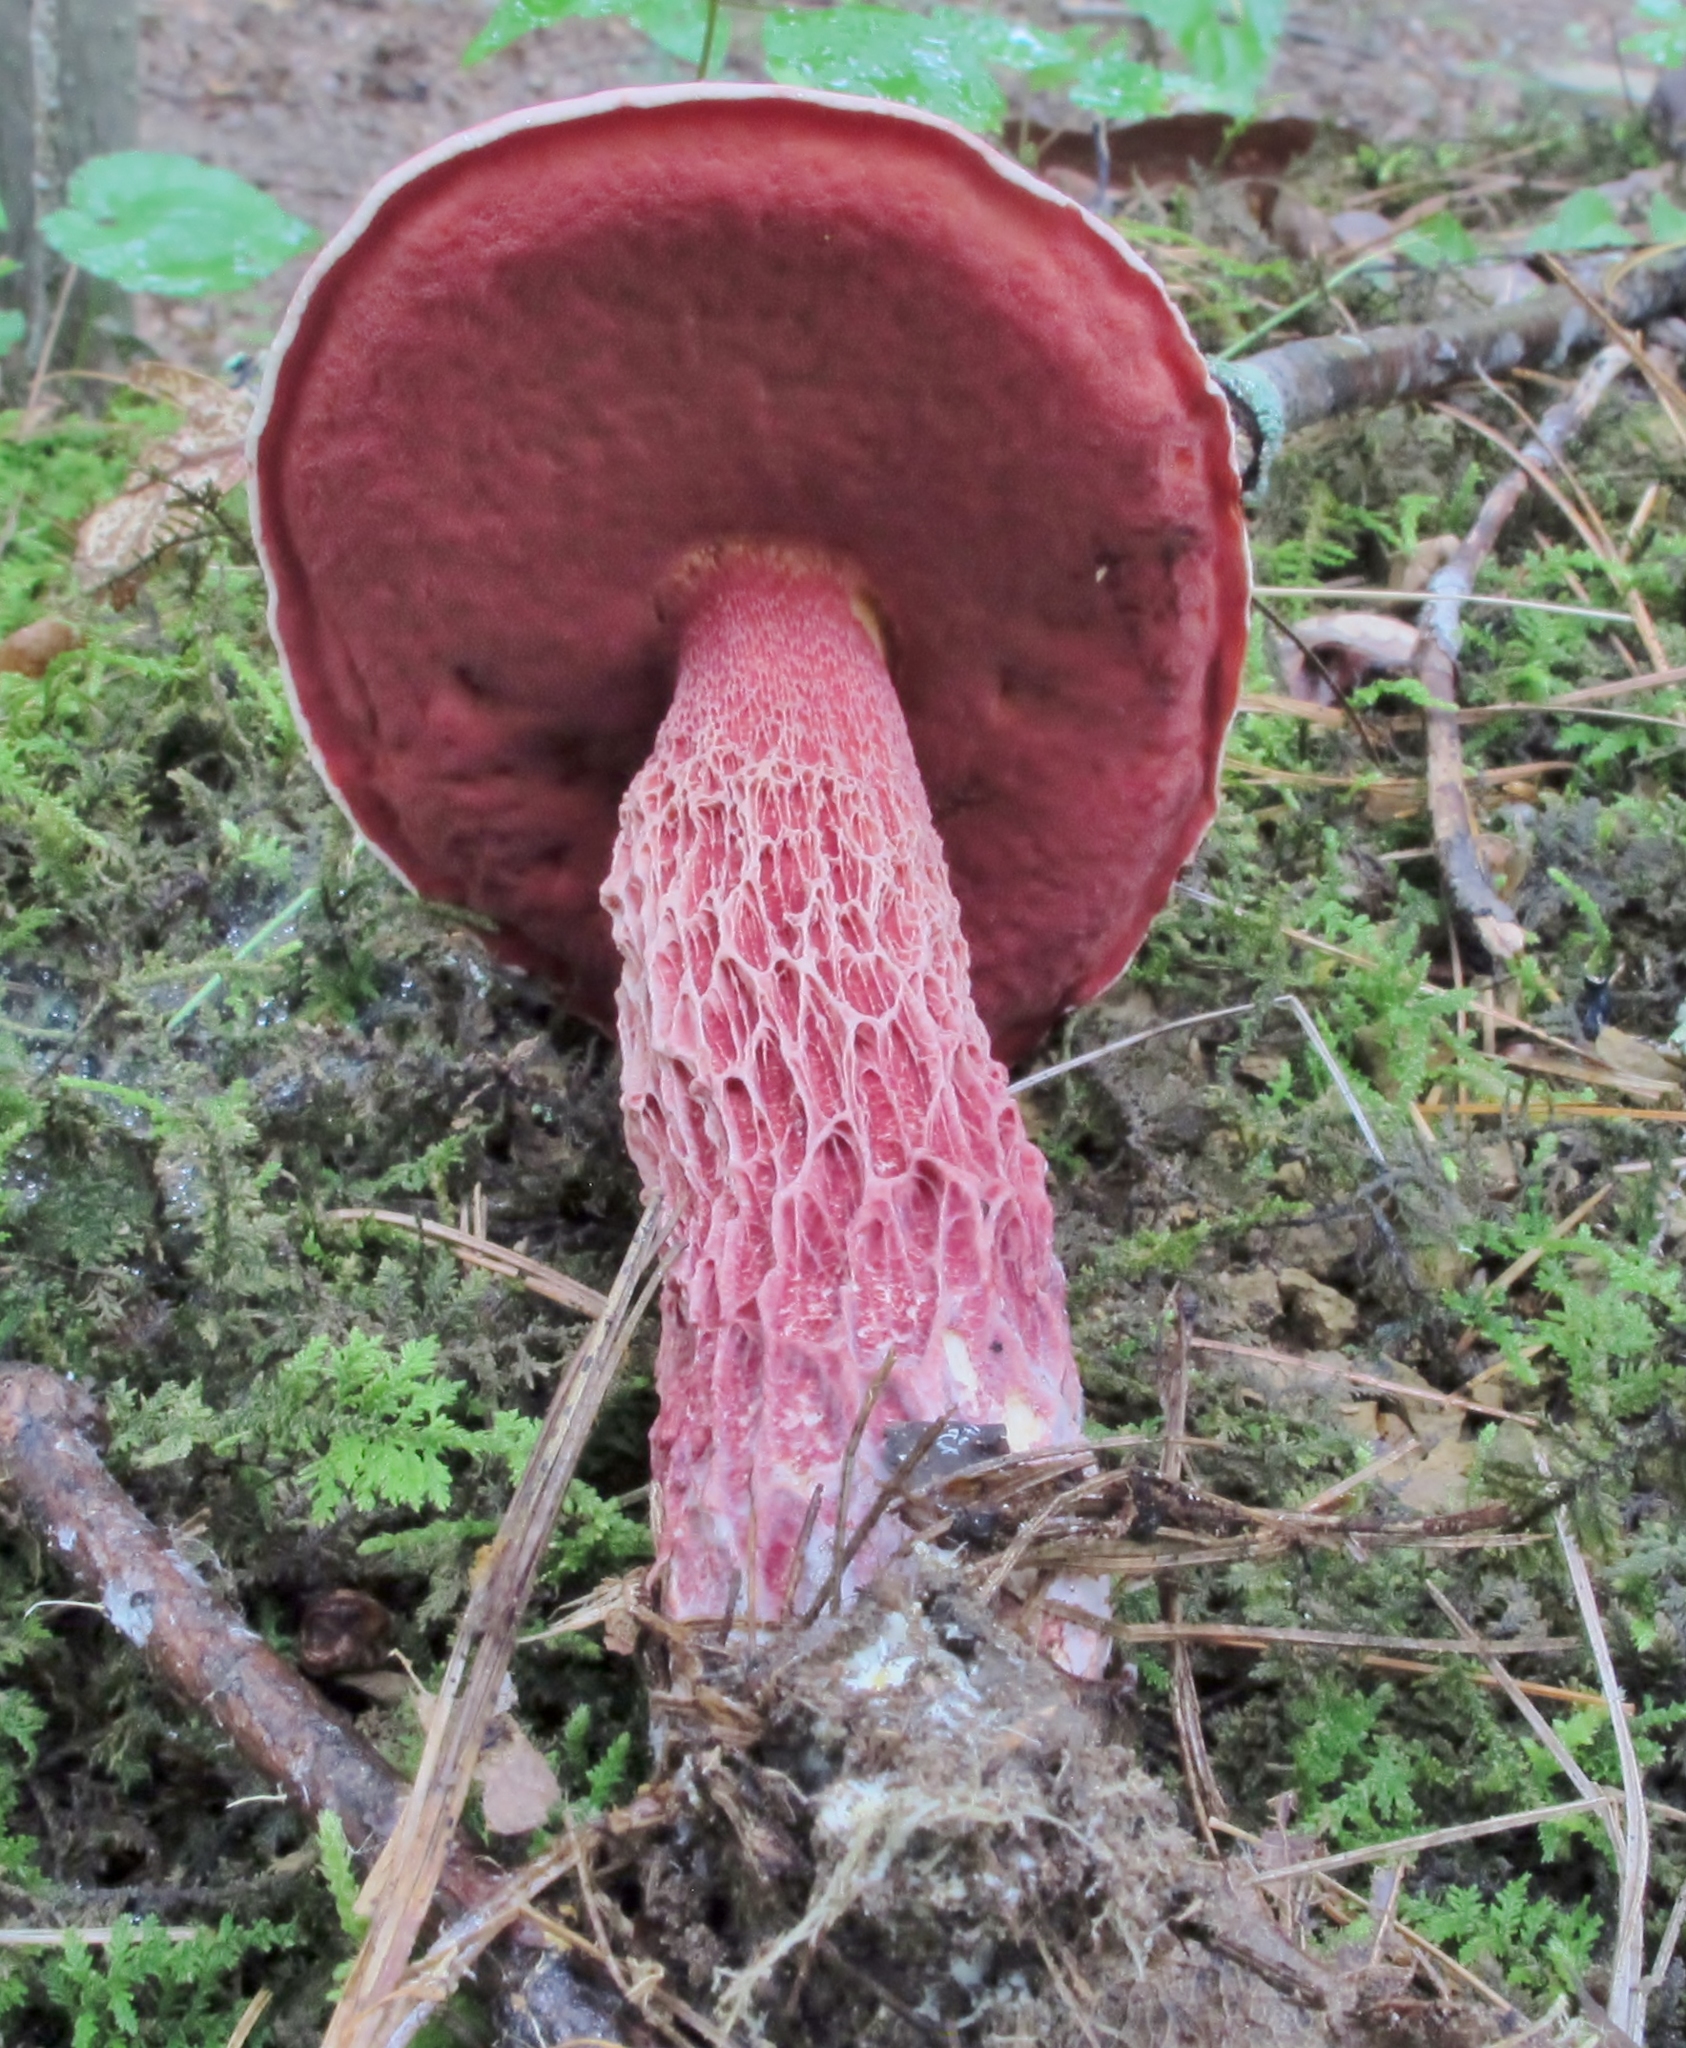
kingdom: Fungi
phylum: Basidiomycota
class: Agaricomycetes
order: Boletales
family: Boletaceae
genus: Butyriboletus
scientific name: Butyriboletus frostii
